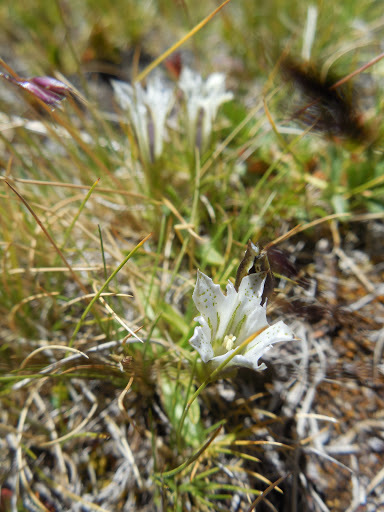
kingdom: Plantae
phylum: Tracheophyta
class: Magnoliopsida
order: Gentianales
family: Gentianaceae
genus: Gentiana
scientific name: Gentiana newberryi
